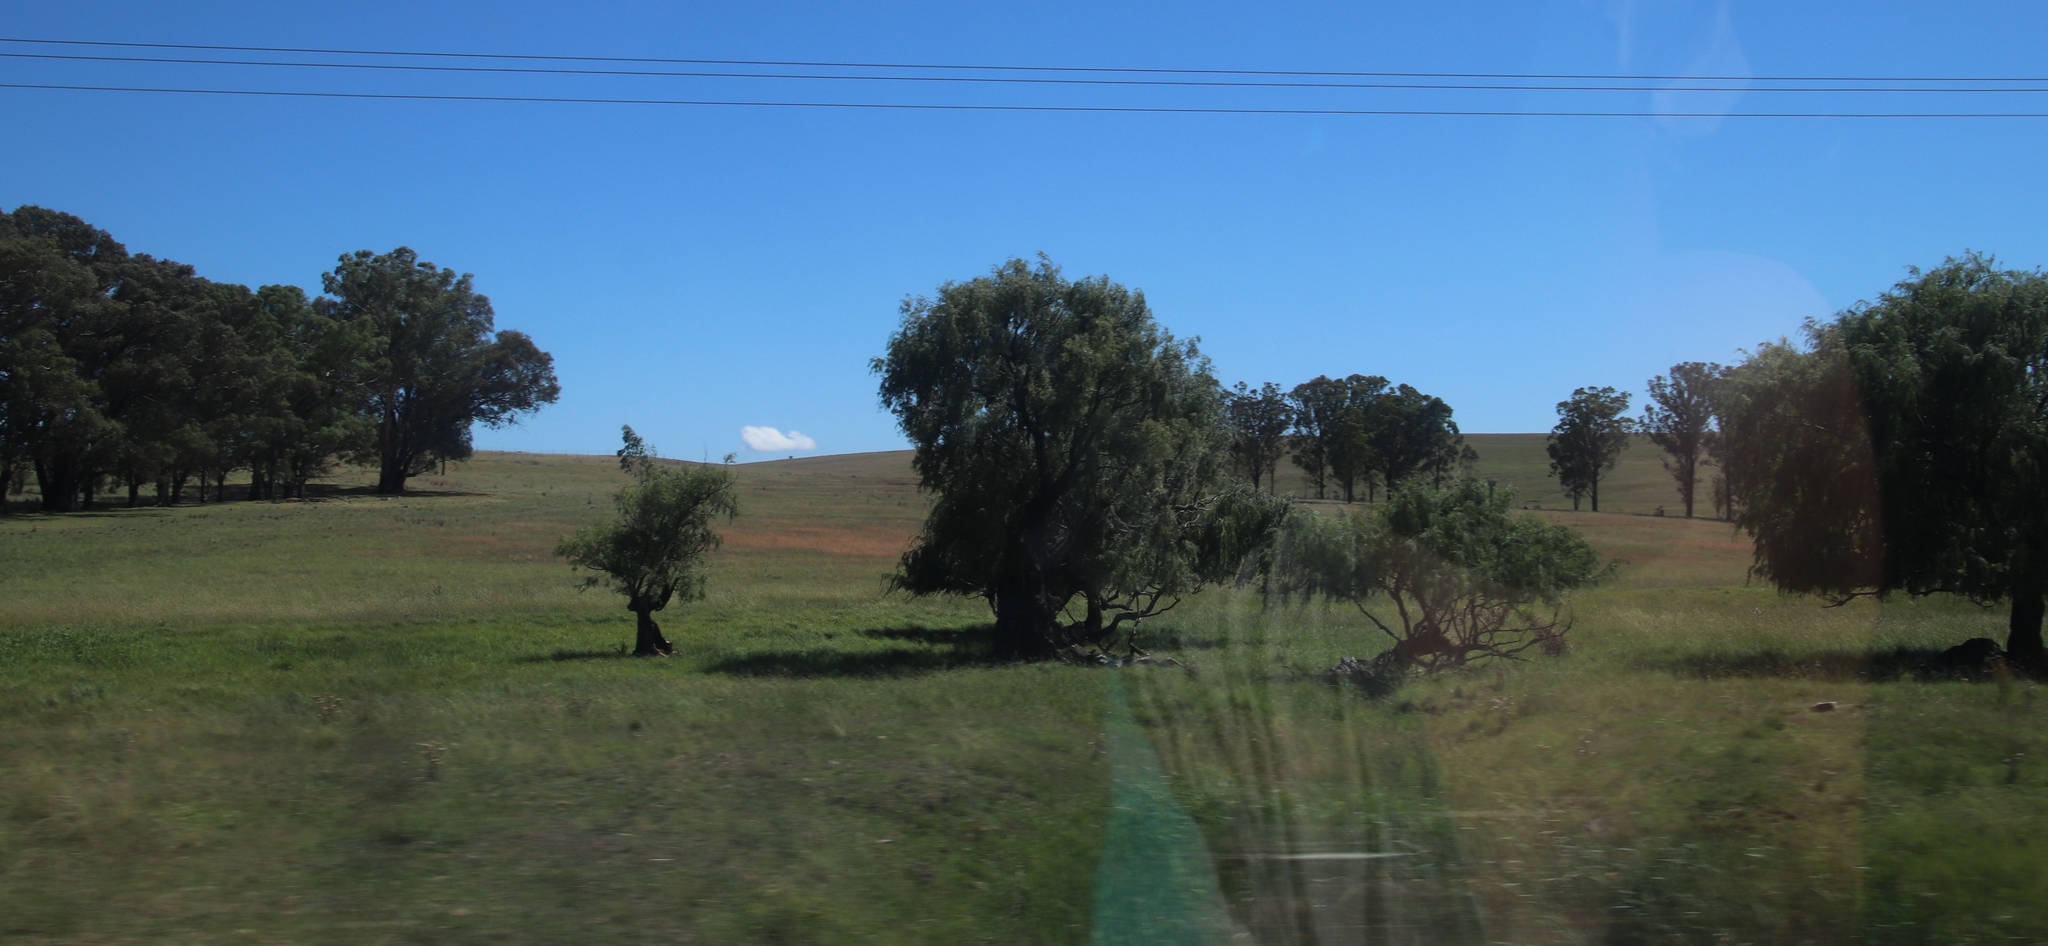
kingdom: Plantae
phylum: Tracheophyta
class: Magnoliopsida
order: Malpighiales
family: Salicaceae
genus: Salix
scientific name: Salix babylonica
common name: Weeping willow
